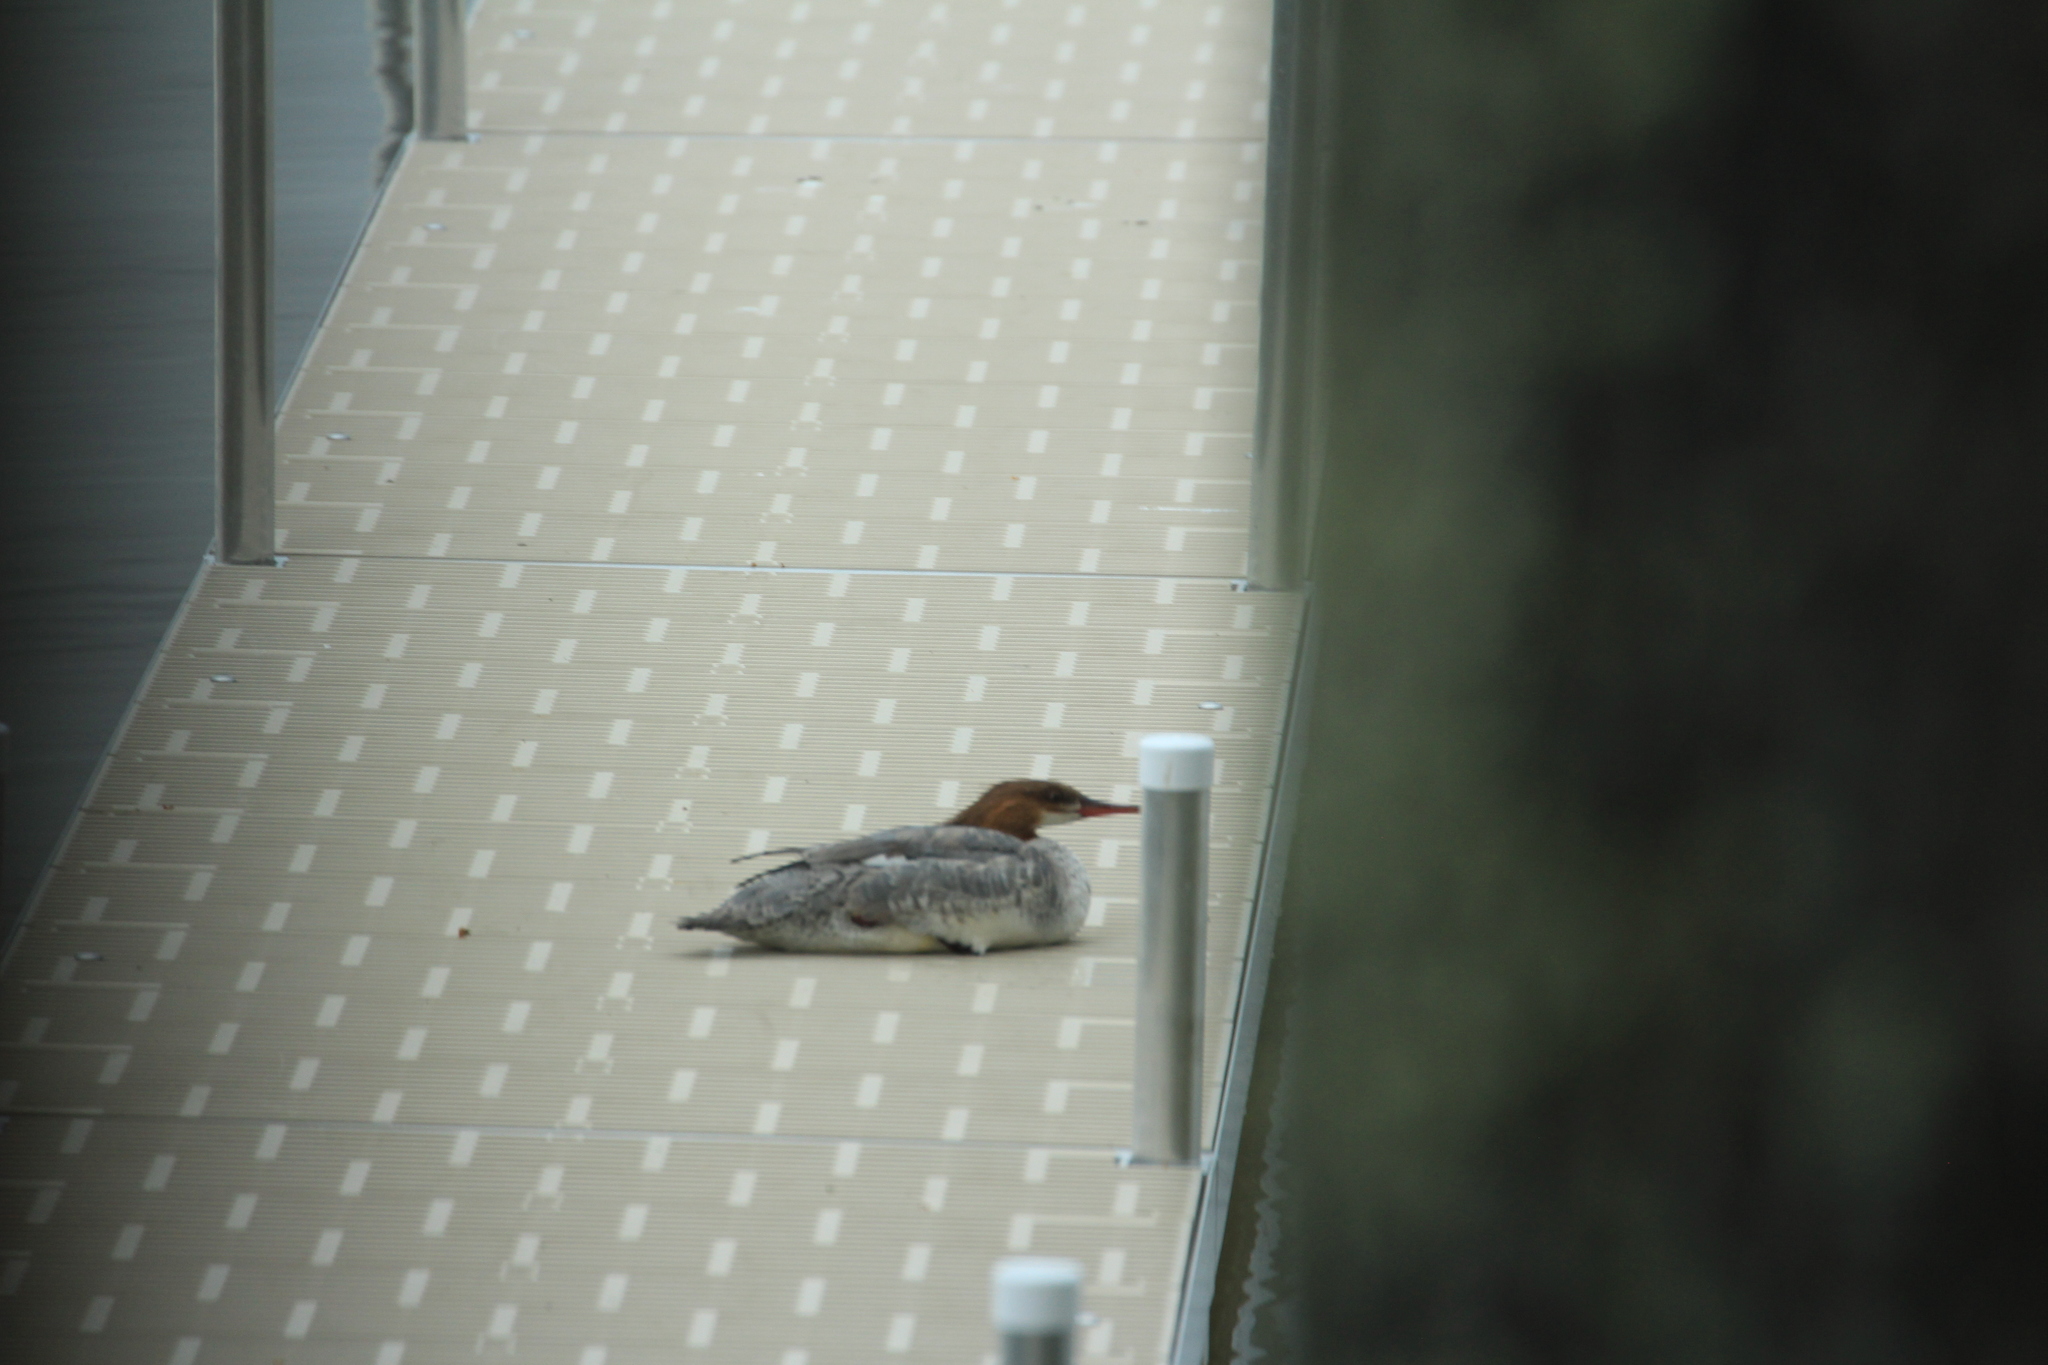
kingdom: Animalia
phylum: Chordata
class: Aves
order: Anseriformes
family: Anatidae
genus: Mergus
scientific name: Mergus merganser
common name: Common merganser
